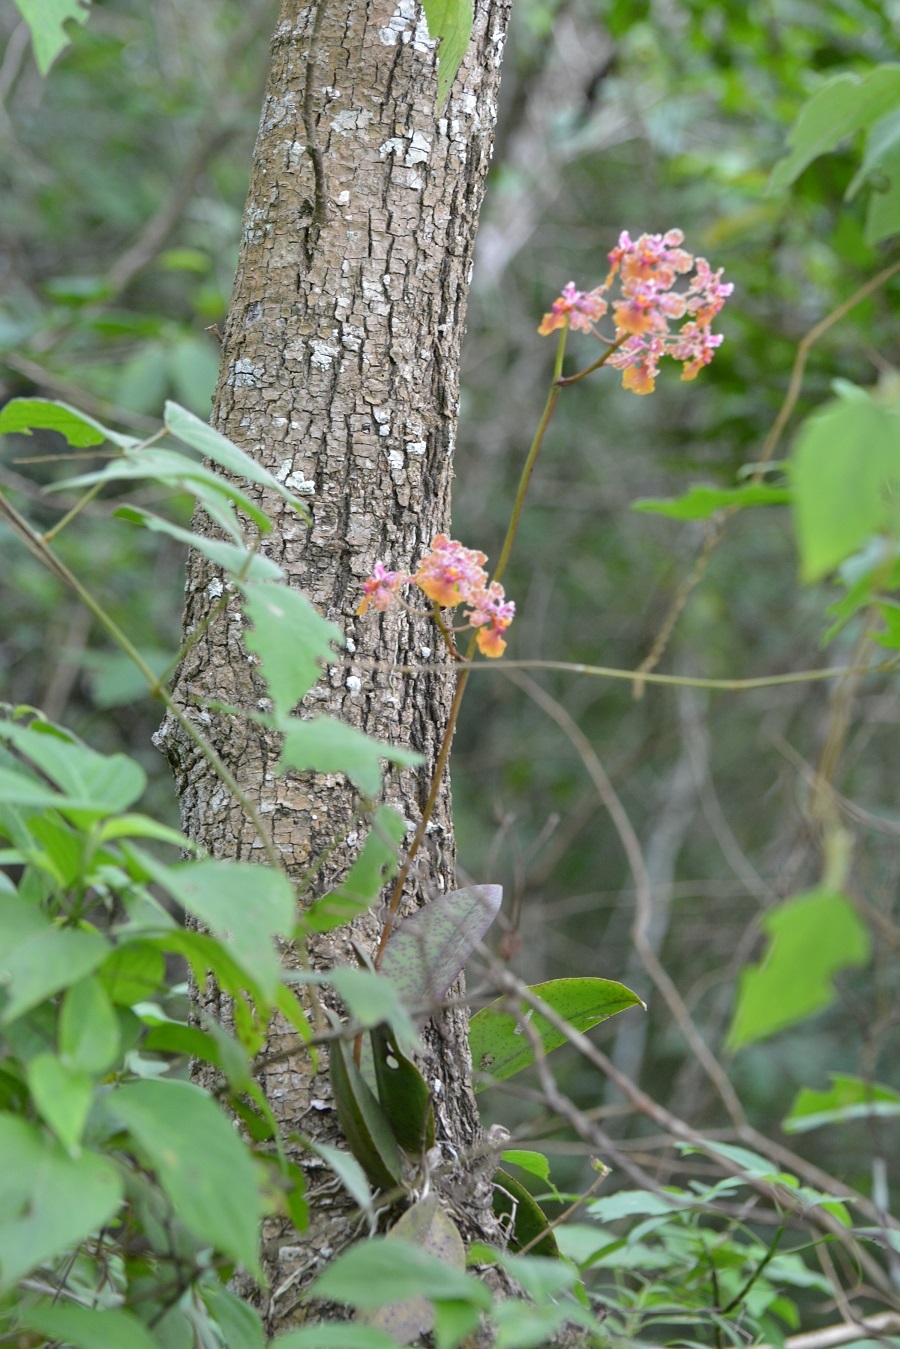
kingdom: Plantae
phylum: Tracheophyta
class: Liliopsida
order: Asparagales
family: Orchidaceae
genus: Trichocentrum
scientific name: Trichocentrum andreanum
